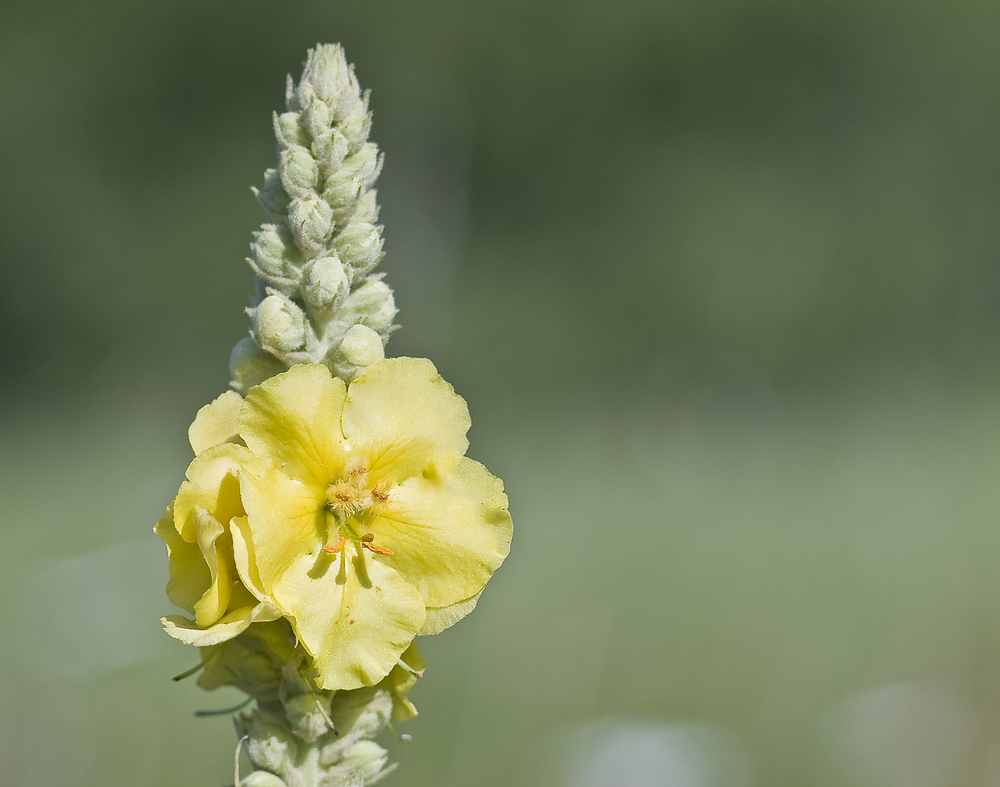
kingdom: Plantae
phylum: Tracheophyta
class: Magnoliopsida
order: Lamiales
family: Scrophulariaceae
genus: Verbascum
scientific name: Verbascum densiflorum
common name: Dense-flowered mullein
